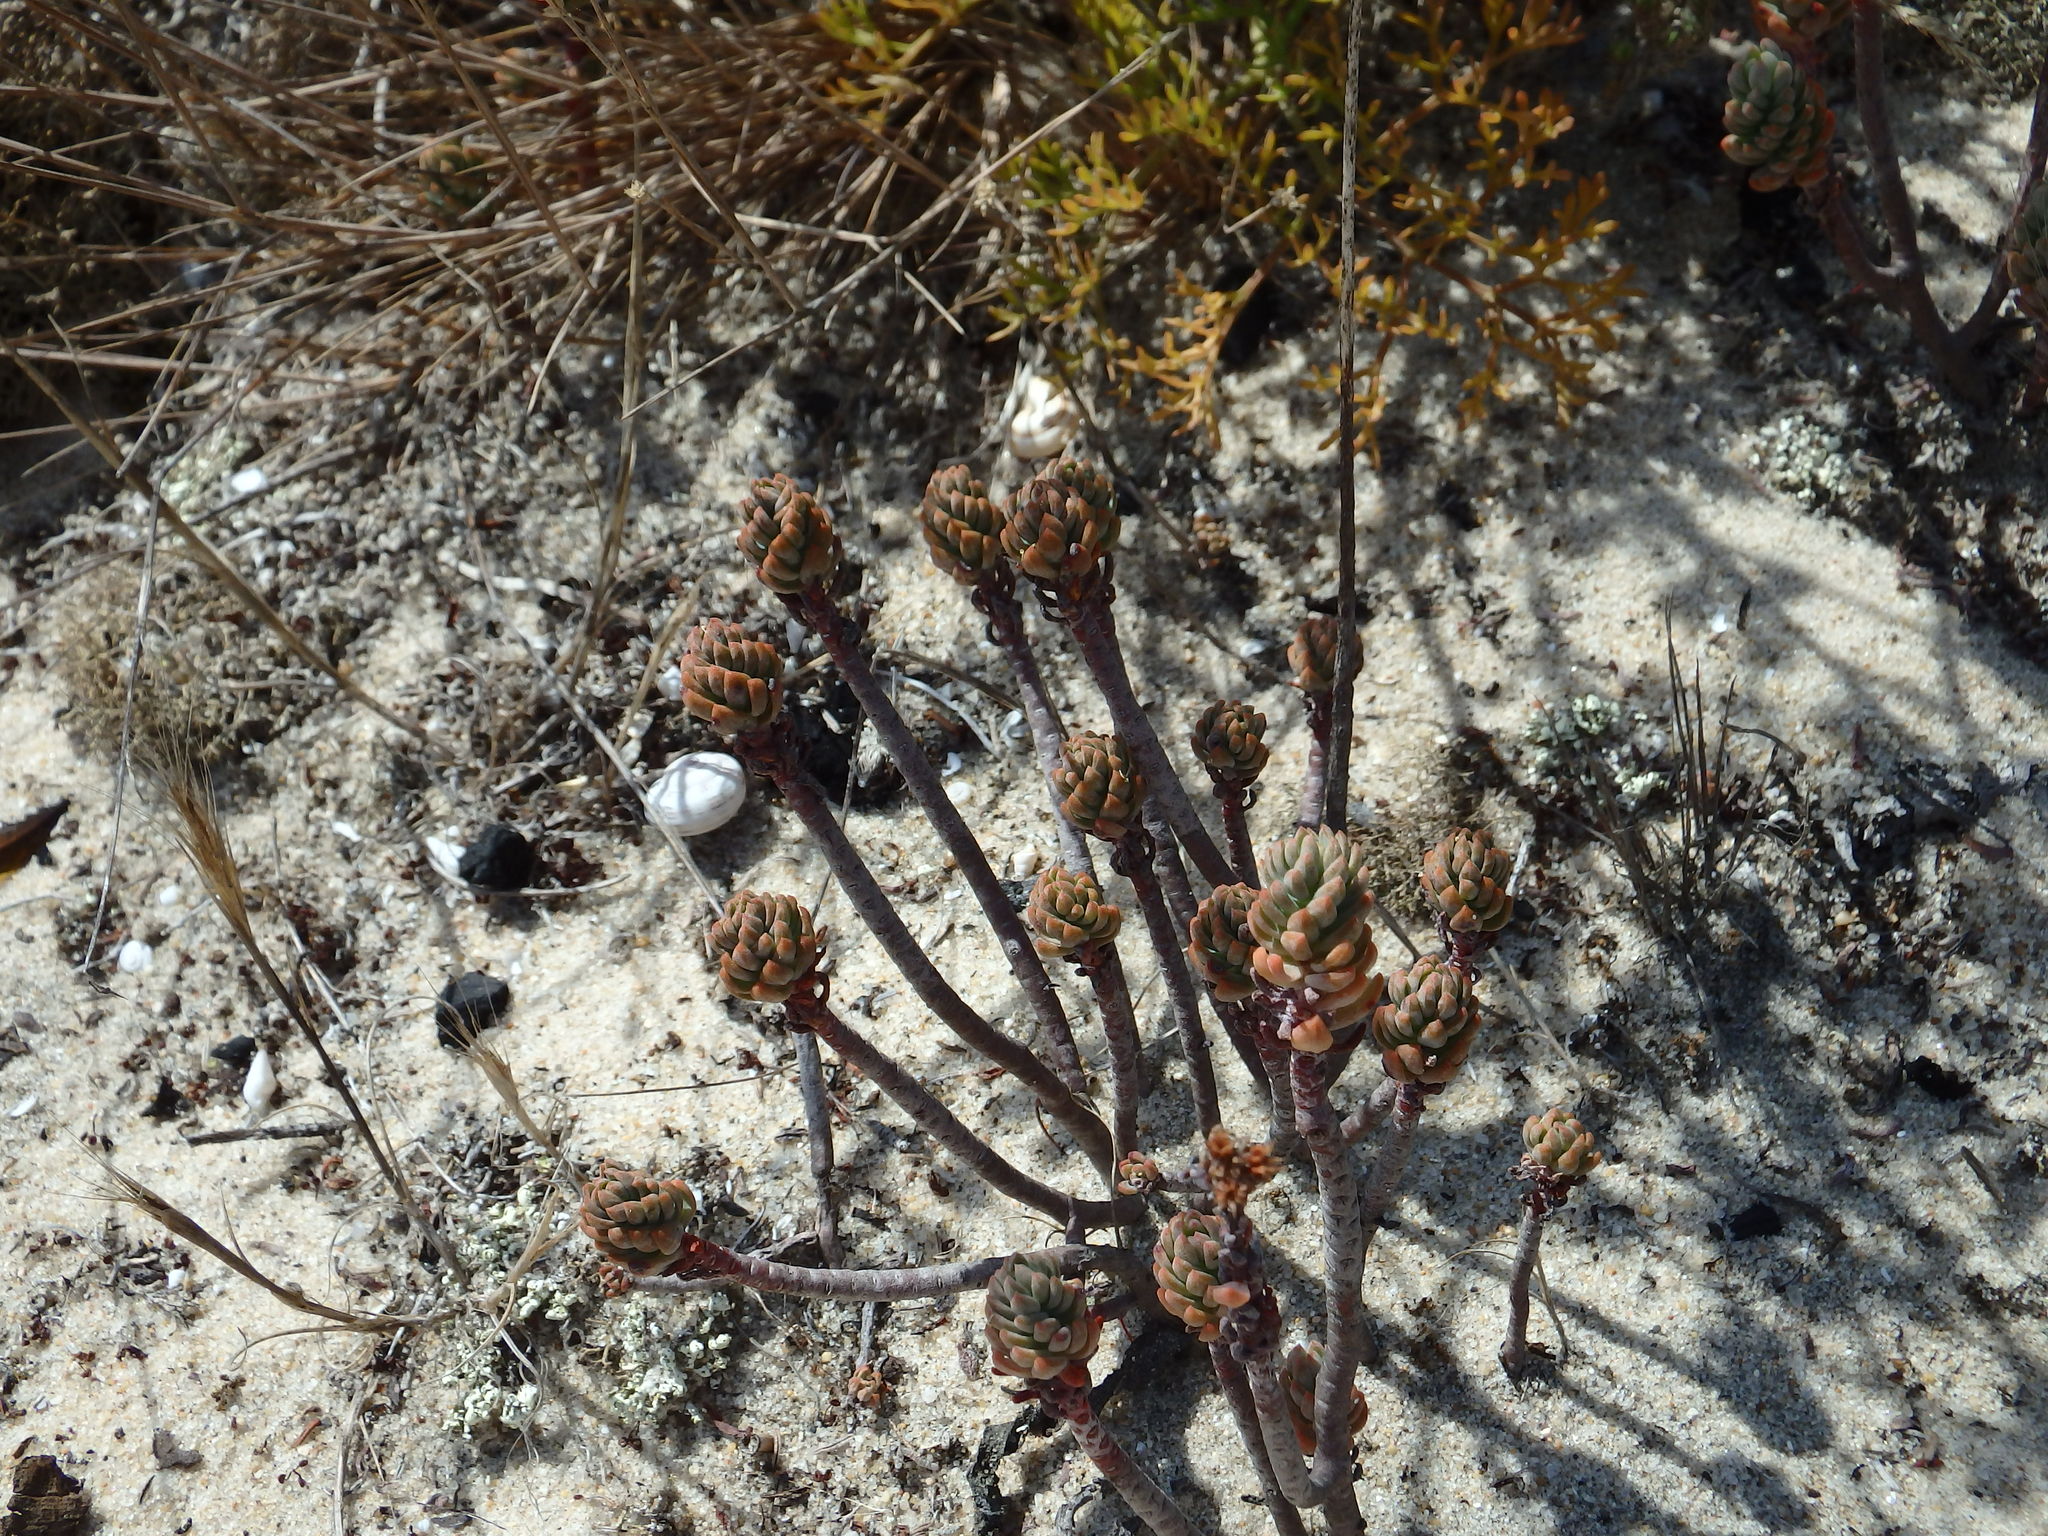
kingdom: Plantae
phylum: Tracheophyta
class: Magnoliopsida
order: Saxifragales
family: Crassulaceae
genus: Petrosedum
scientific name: Petrosedum sediforme
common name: Pale stonecrop
